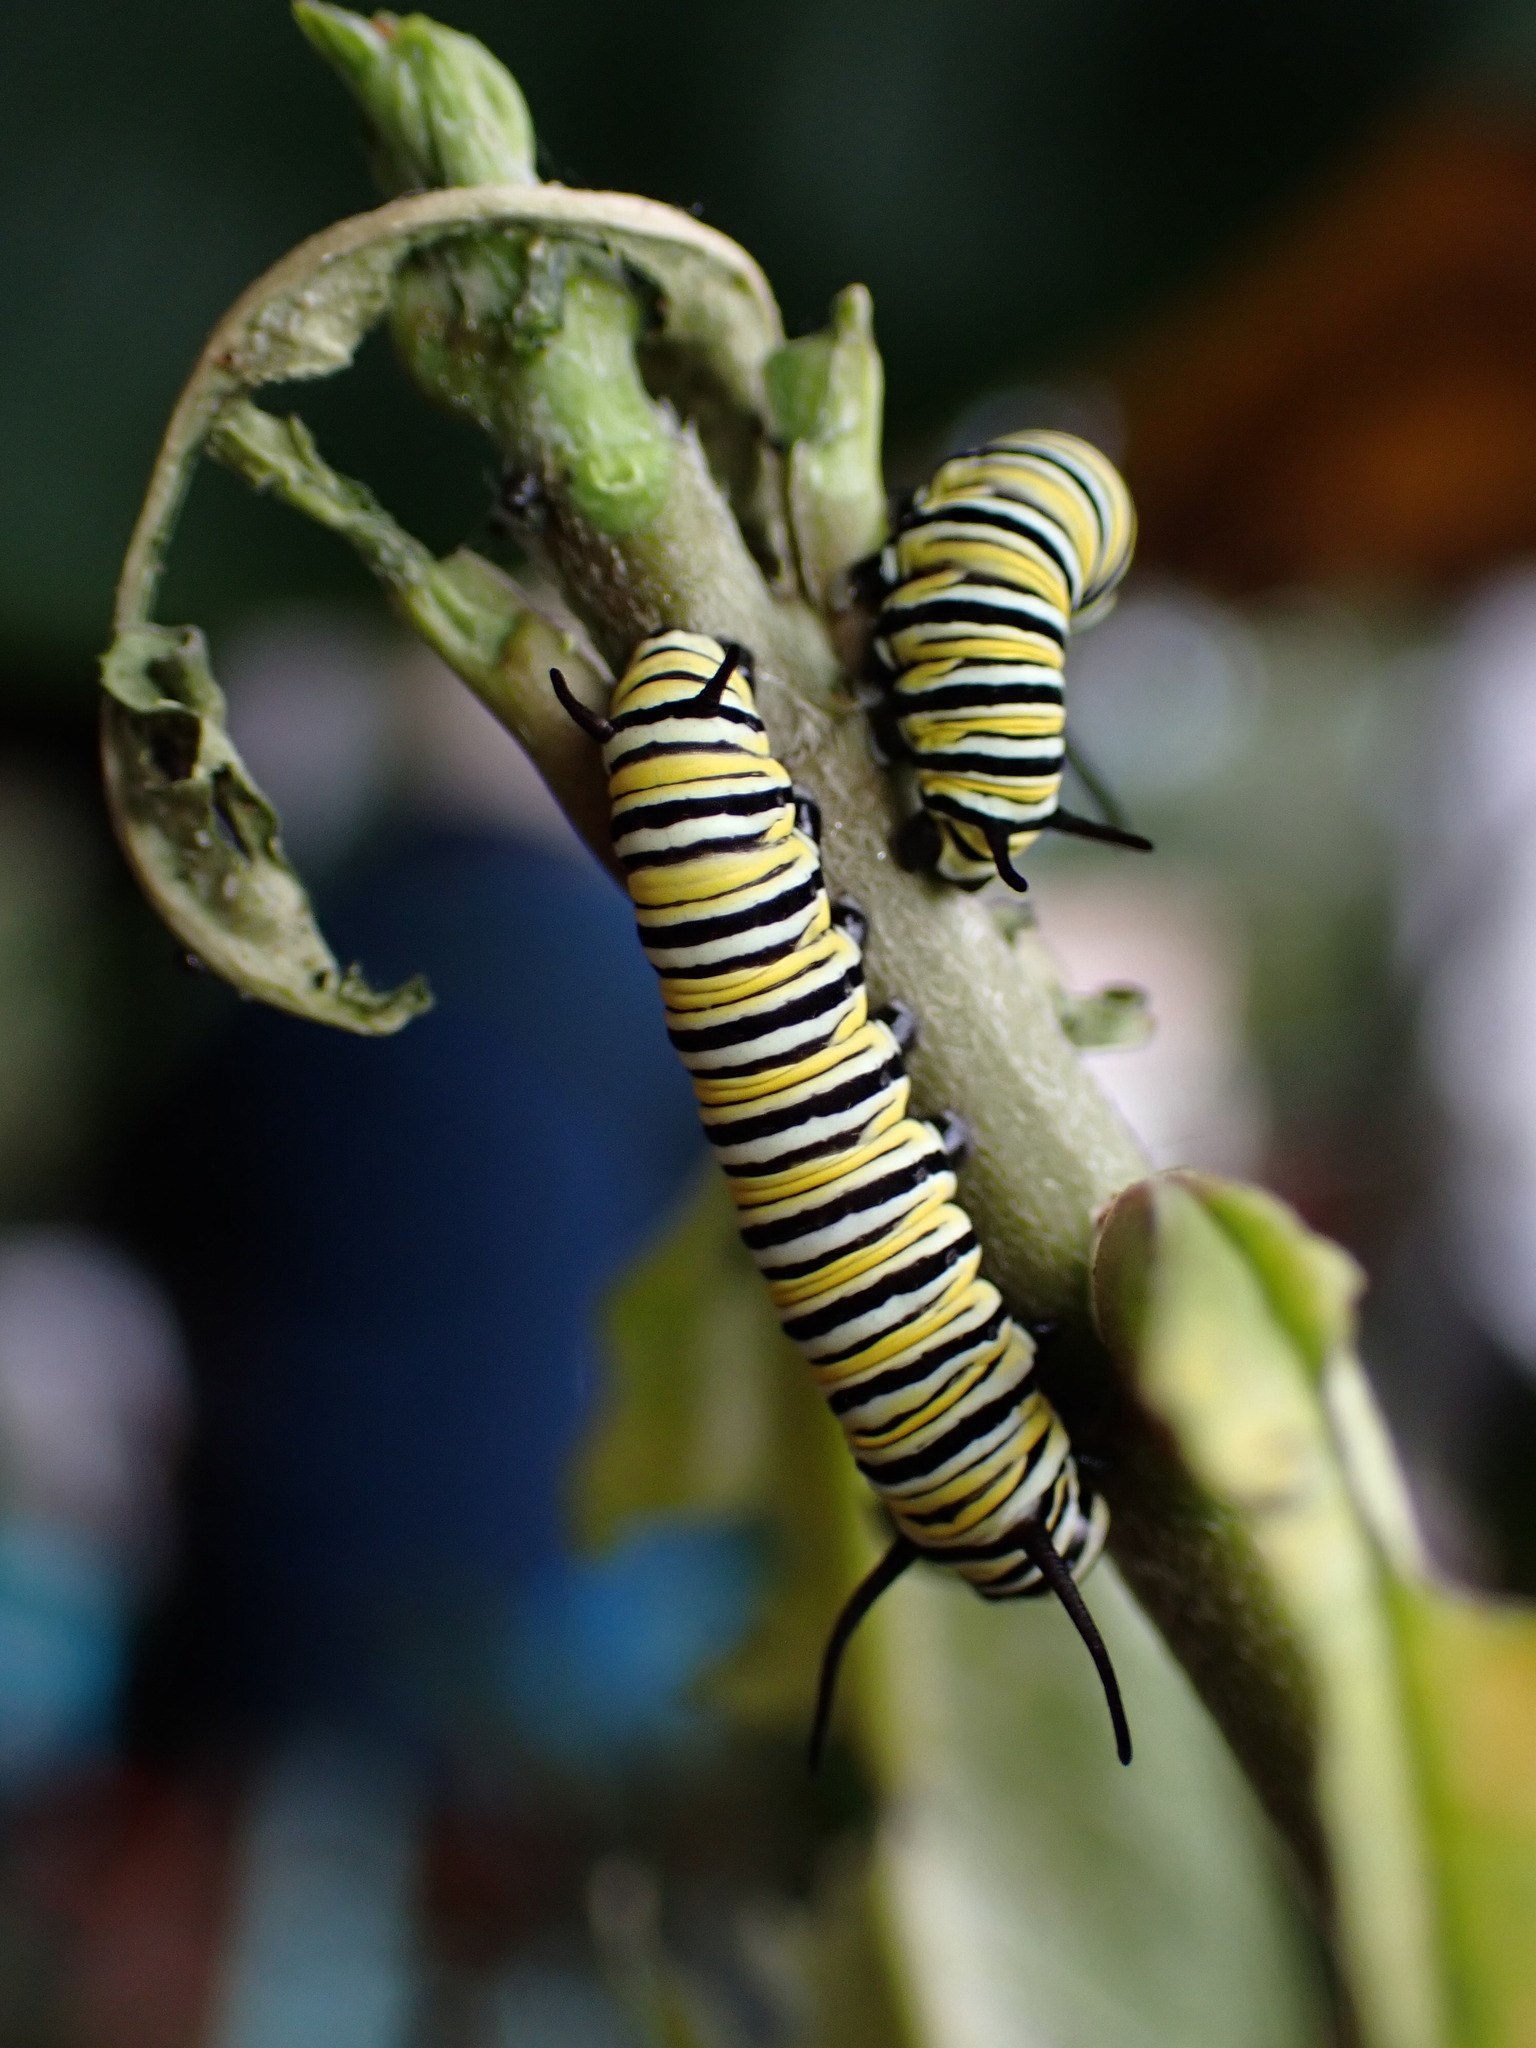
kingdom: Animalia
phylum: Arthropoda
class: Insecta
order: Lepidoptera
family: Nymphalidae
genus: Danaus
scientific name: Danaus plexippus
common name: Monarch
